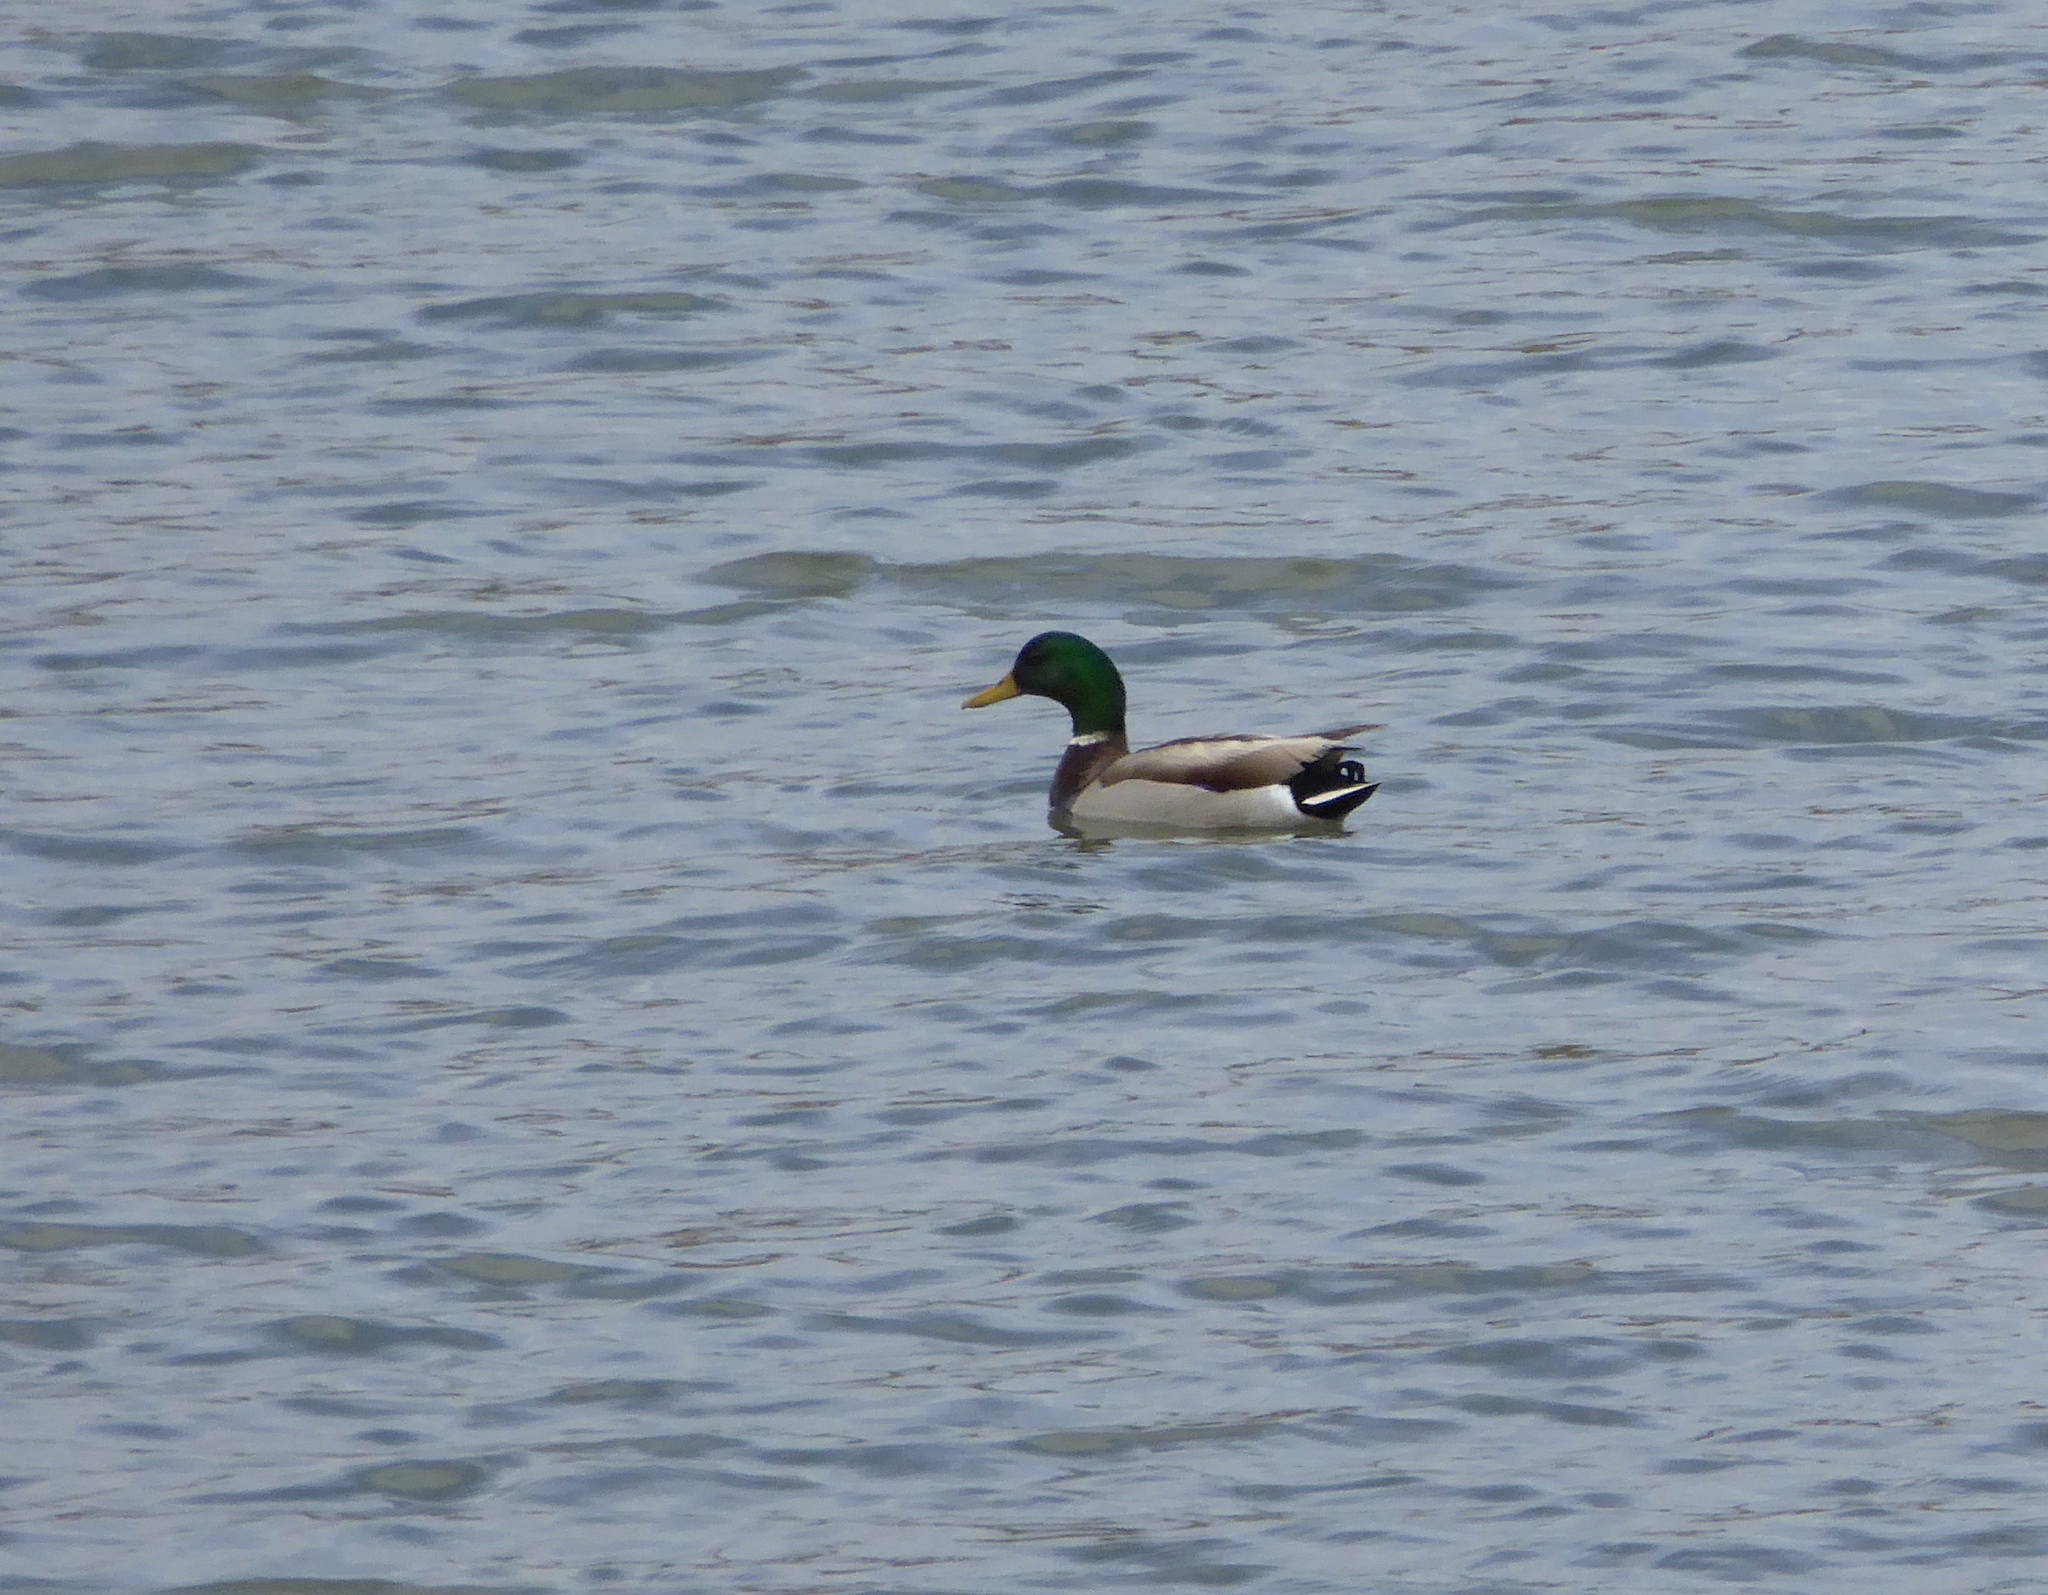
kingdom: Animalia
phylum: Chordata
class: Aves
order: Anseriformes
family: Anatidae
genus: Anas
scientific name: Anas platyrhynchos
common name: Mallard
